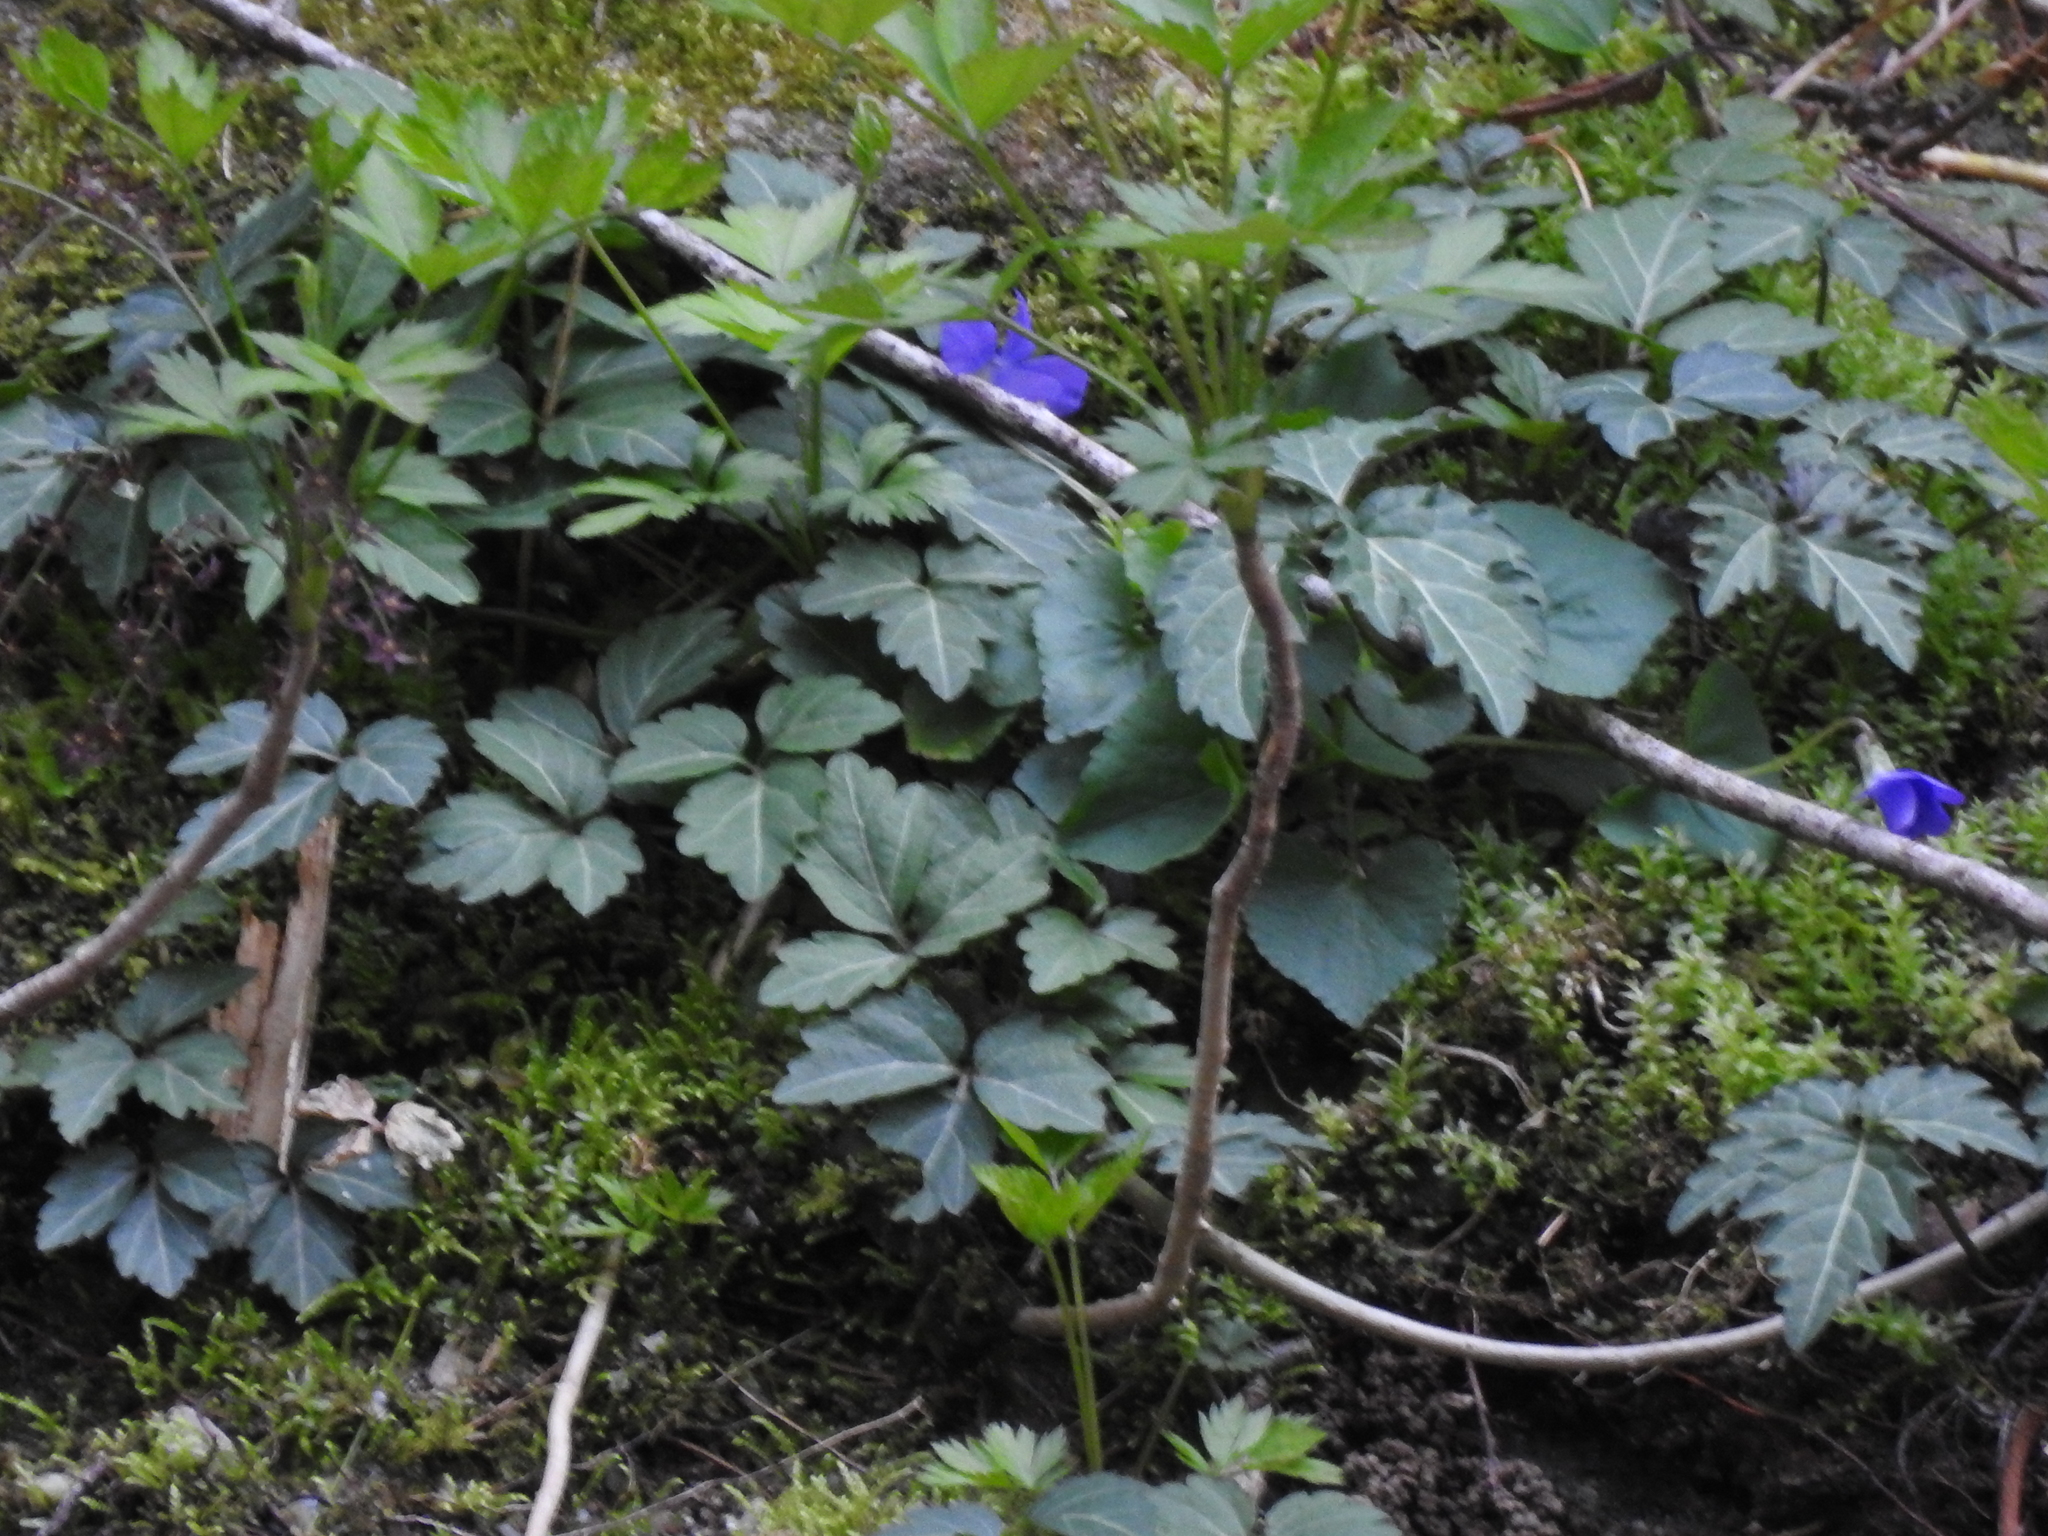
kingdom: Plantae
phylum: Tracheophyta
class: Magnoliopsida
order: Brassicales
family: Brassicaceae
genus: Cardamine
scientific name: Cardamine diphylla
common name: Broad-leaved toothwort
